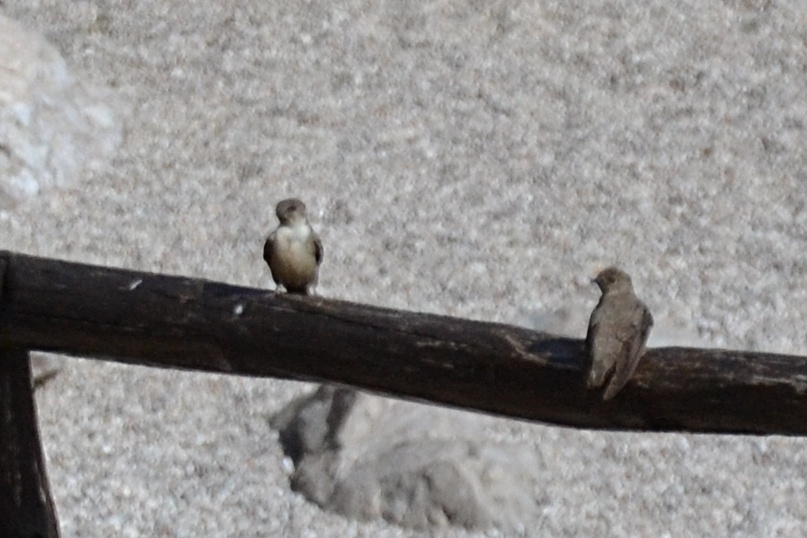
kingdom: Animalia
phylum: Chordata
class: Aves
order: Passeriformes
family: Hirundinidae
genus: Ptyonoprogne
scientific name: Ptyonoprogne rupestris
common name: Eurasian crag martin
